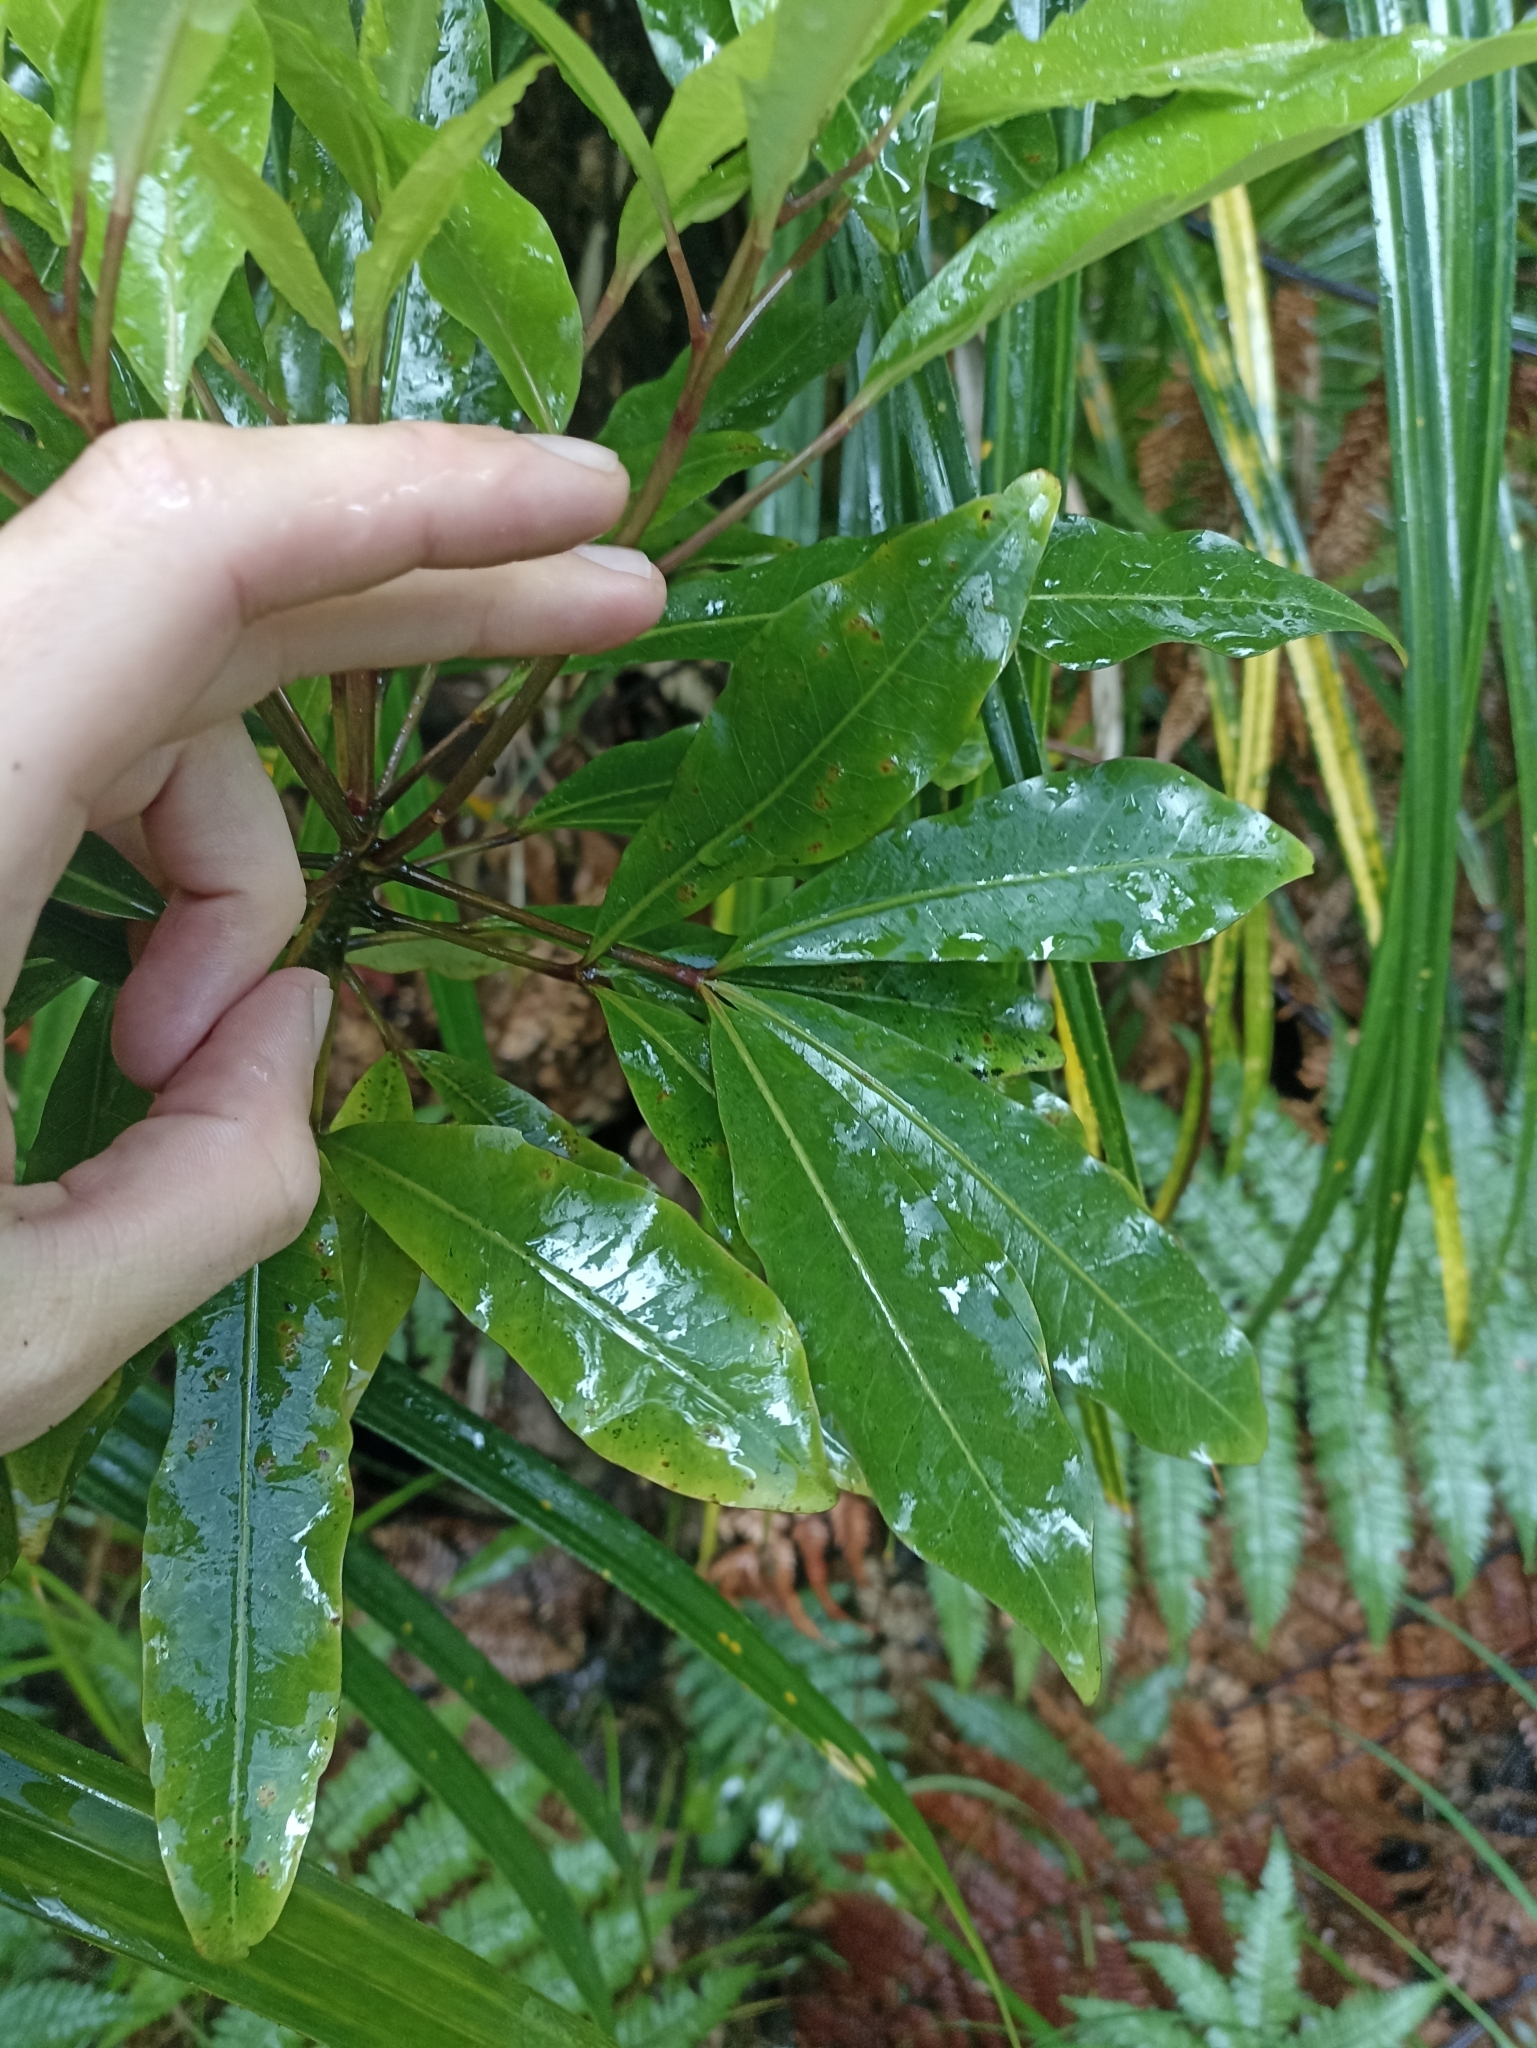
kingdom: Plantae
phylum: Tracheophyta
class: Magnoliopsida
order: Apiales
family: Araliaceae
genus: Raukaua
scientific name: Raukaua edgerleyi
